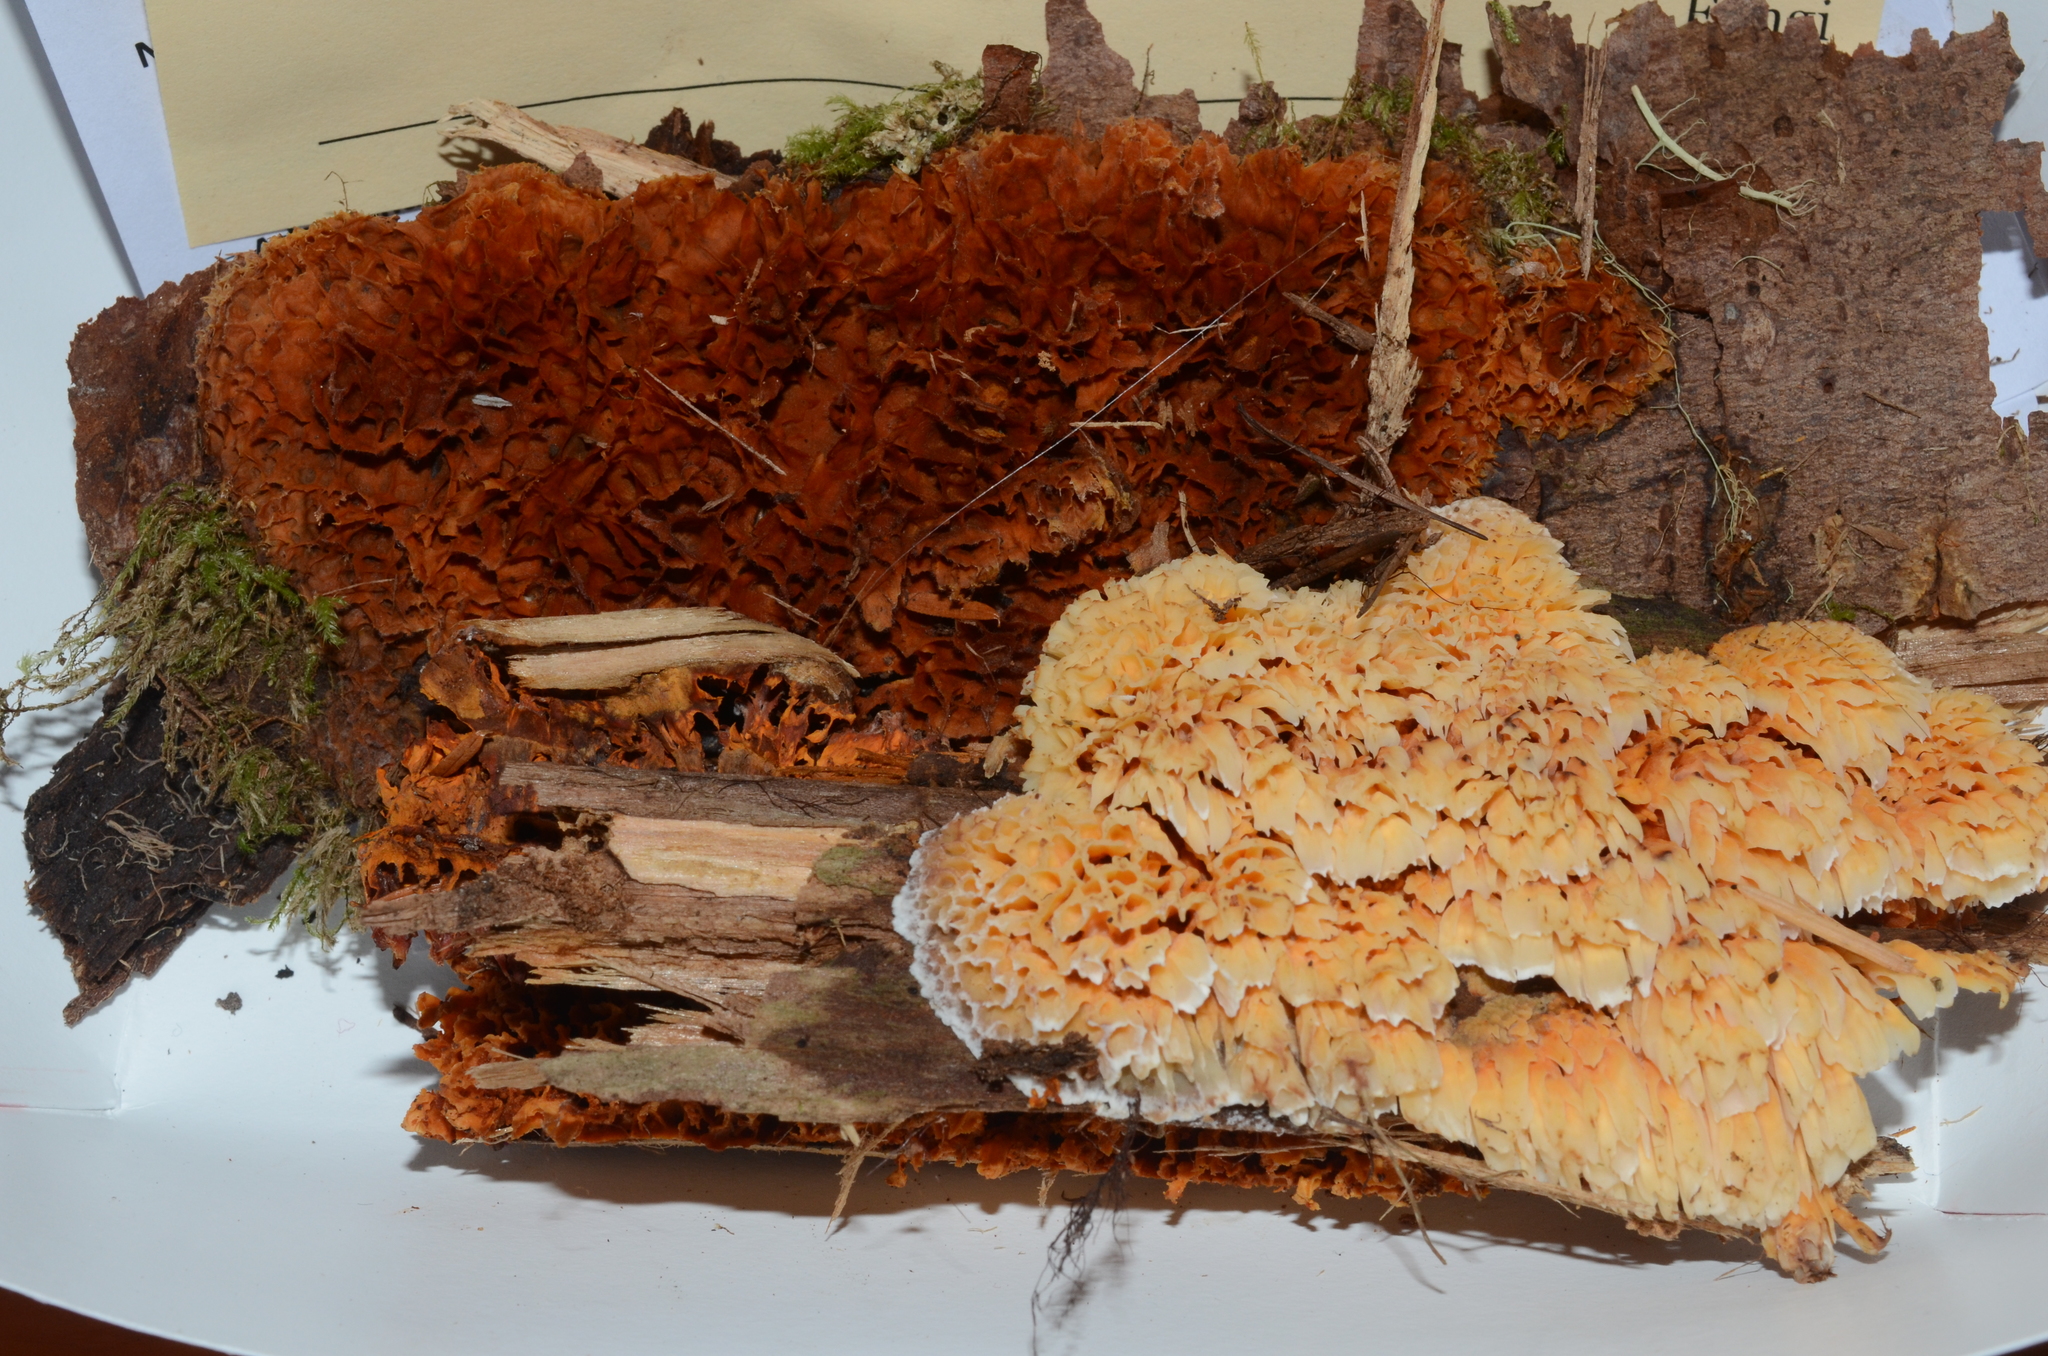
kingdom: Fungi
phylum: Basidiomycota
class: Agaricomycetes
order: Polyporales
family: Pycnoporellaceae
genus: Pycnoporellus
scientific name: Pycnoporellus alboluteus
